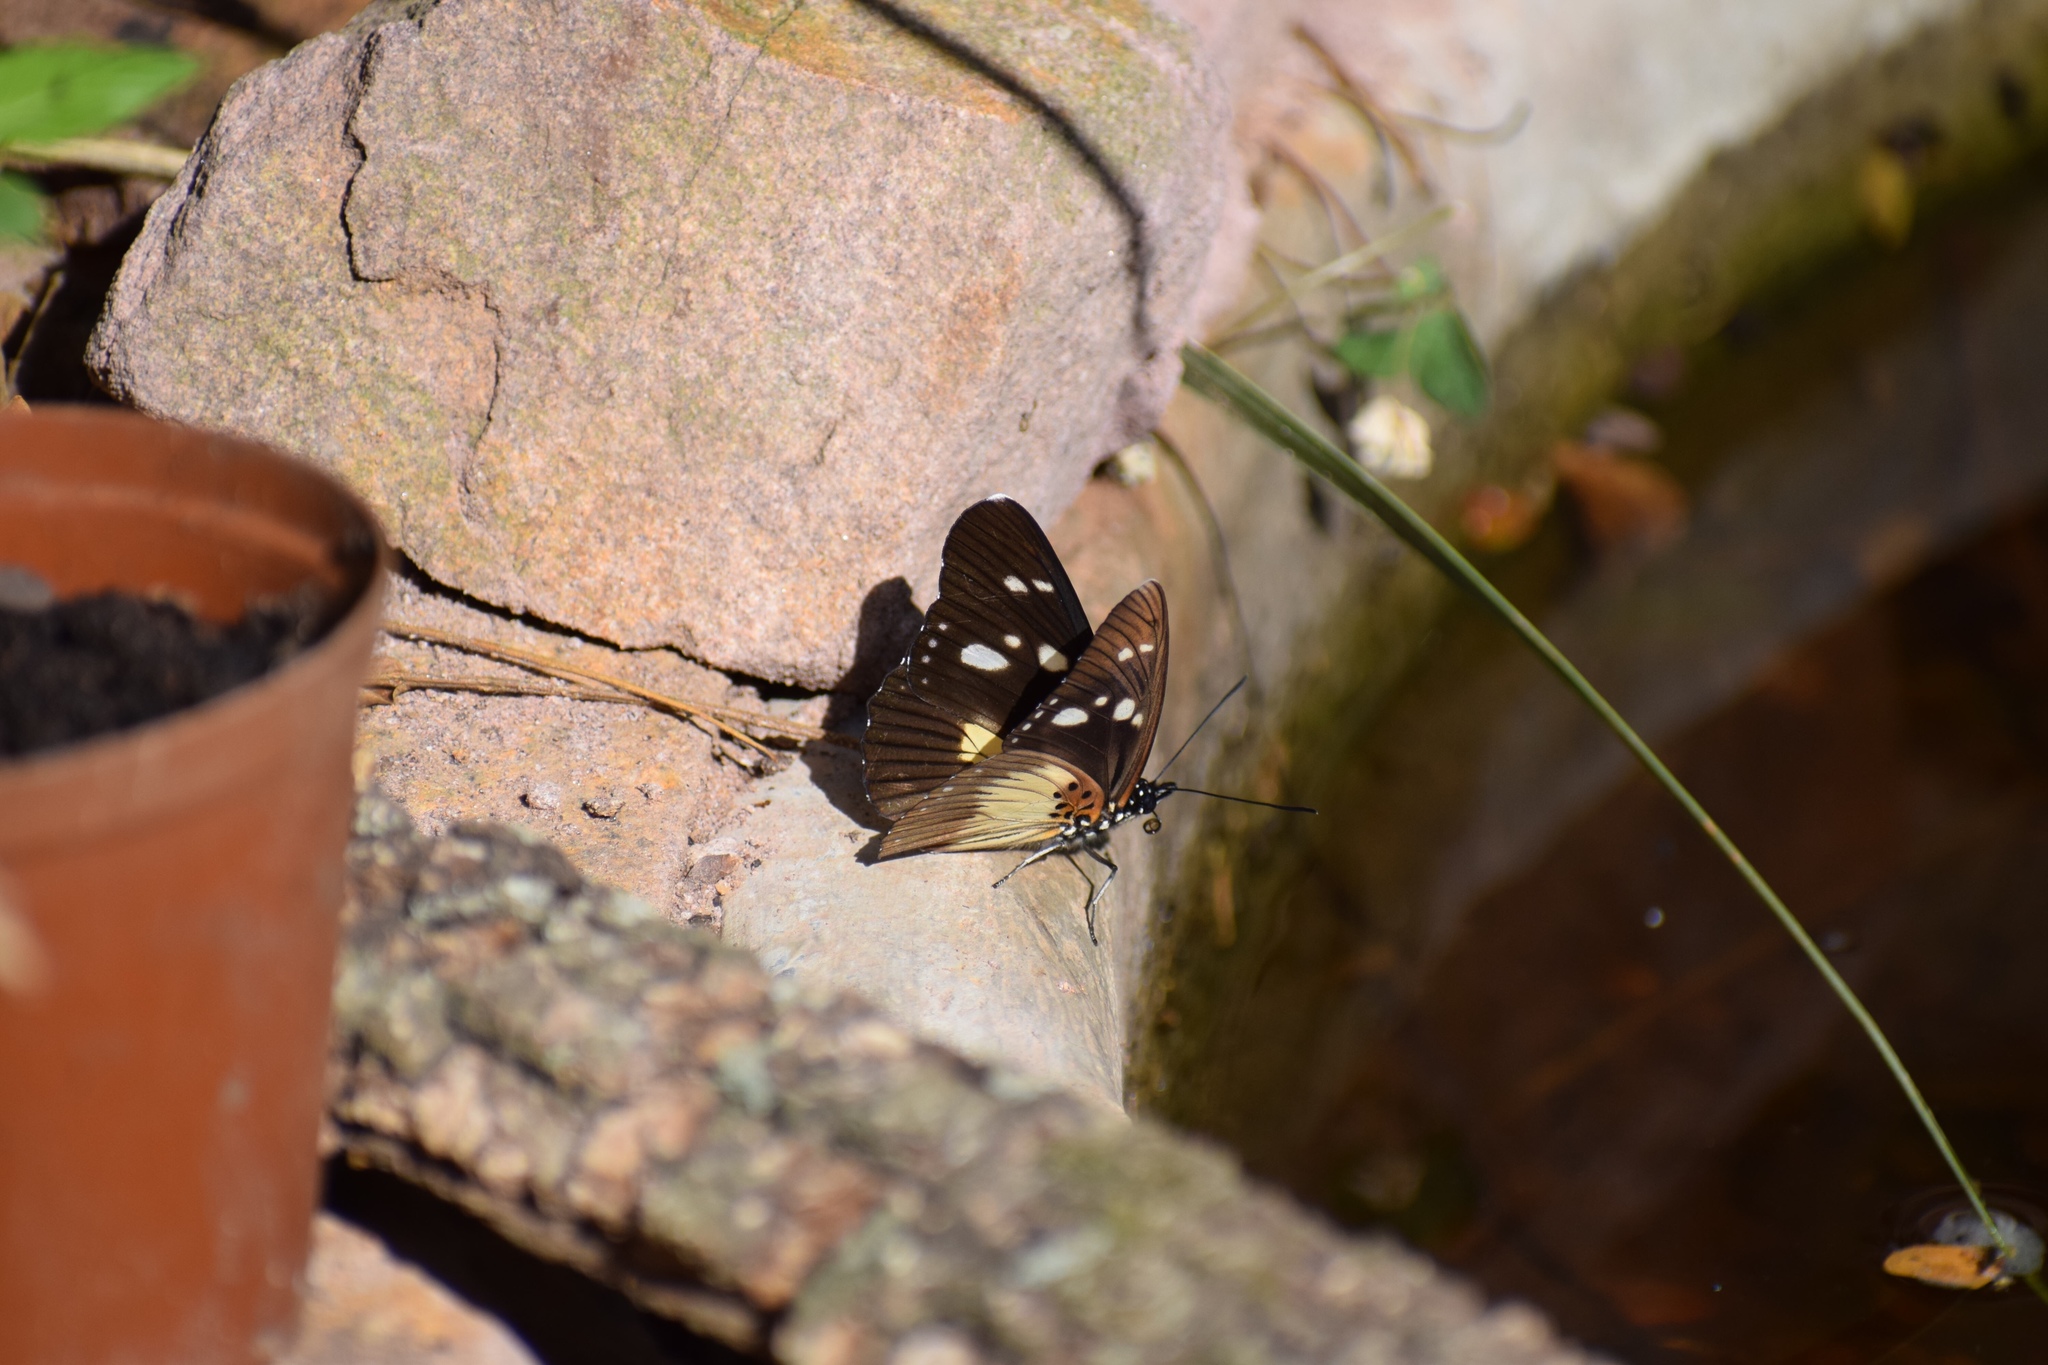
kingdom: Animalia
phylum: Arthropoda
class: Insecta
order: Lepidoptera
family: Nymphalidae
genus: Chloropoea
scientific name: Chloropoea lucretia
